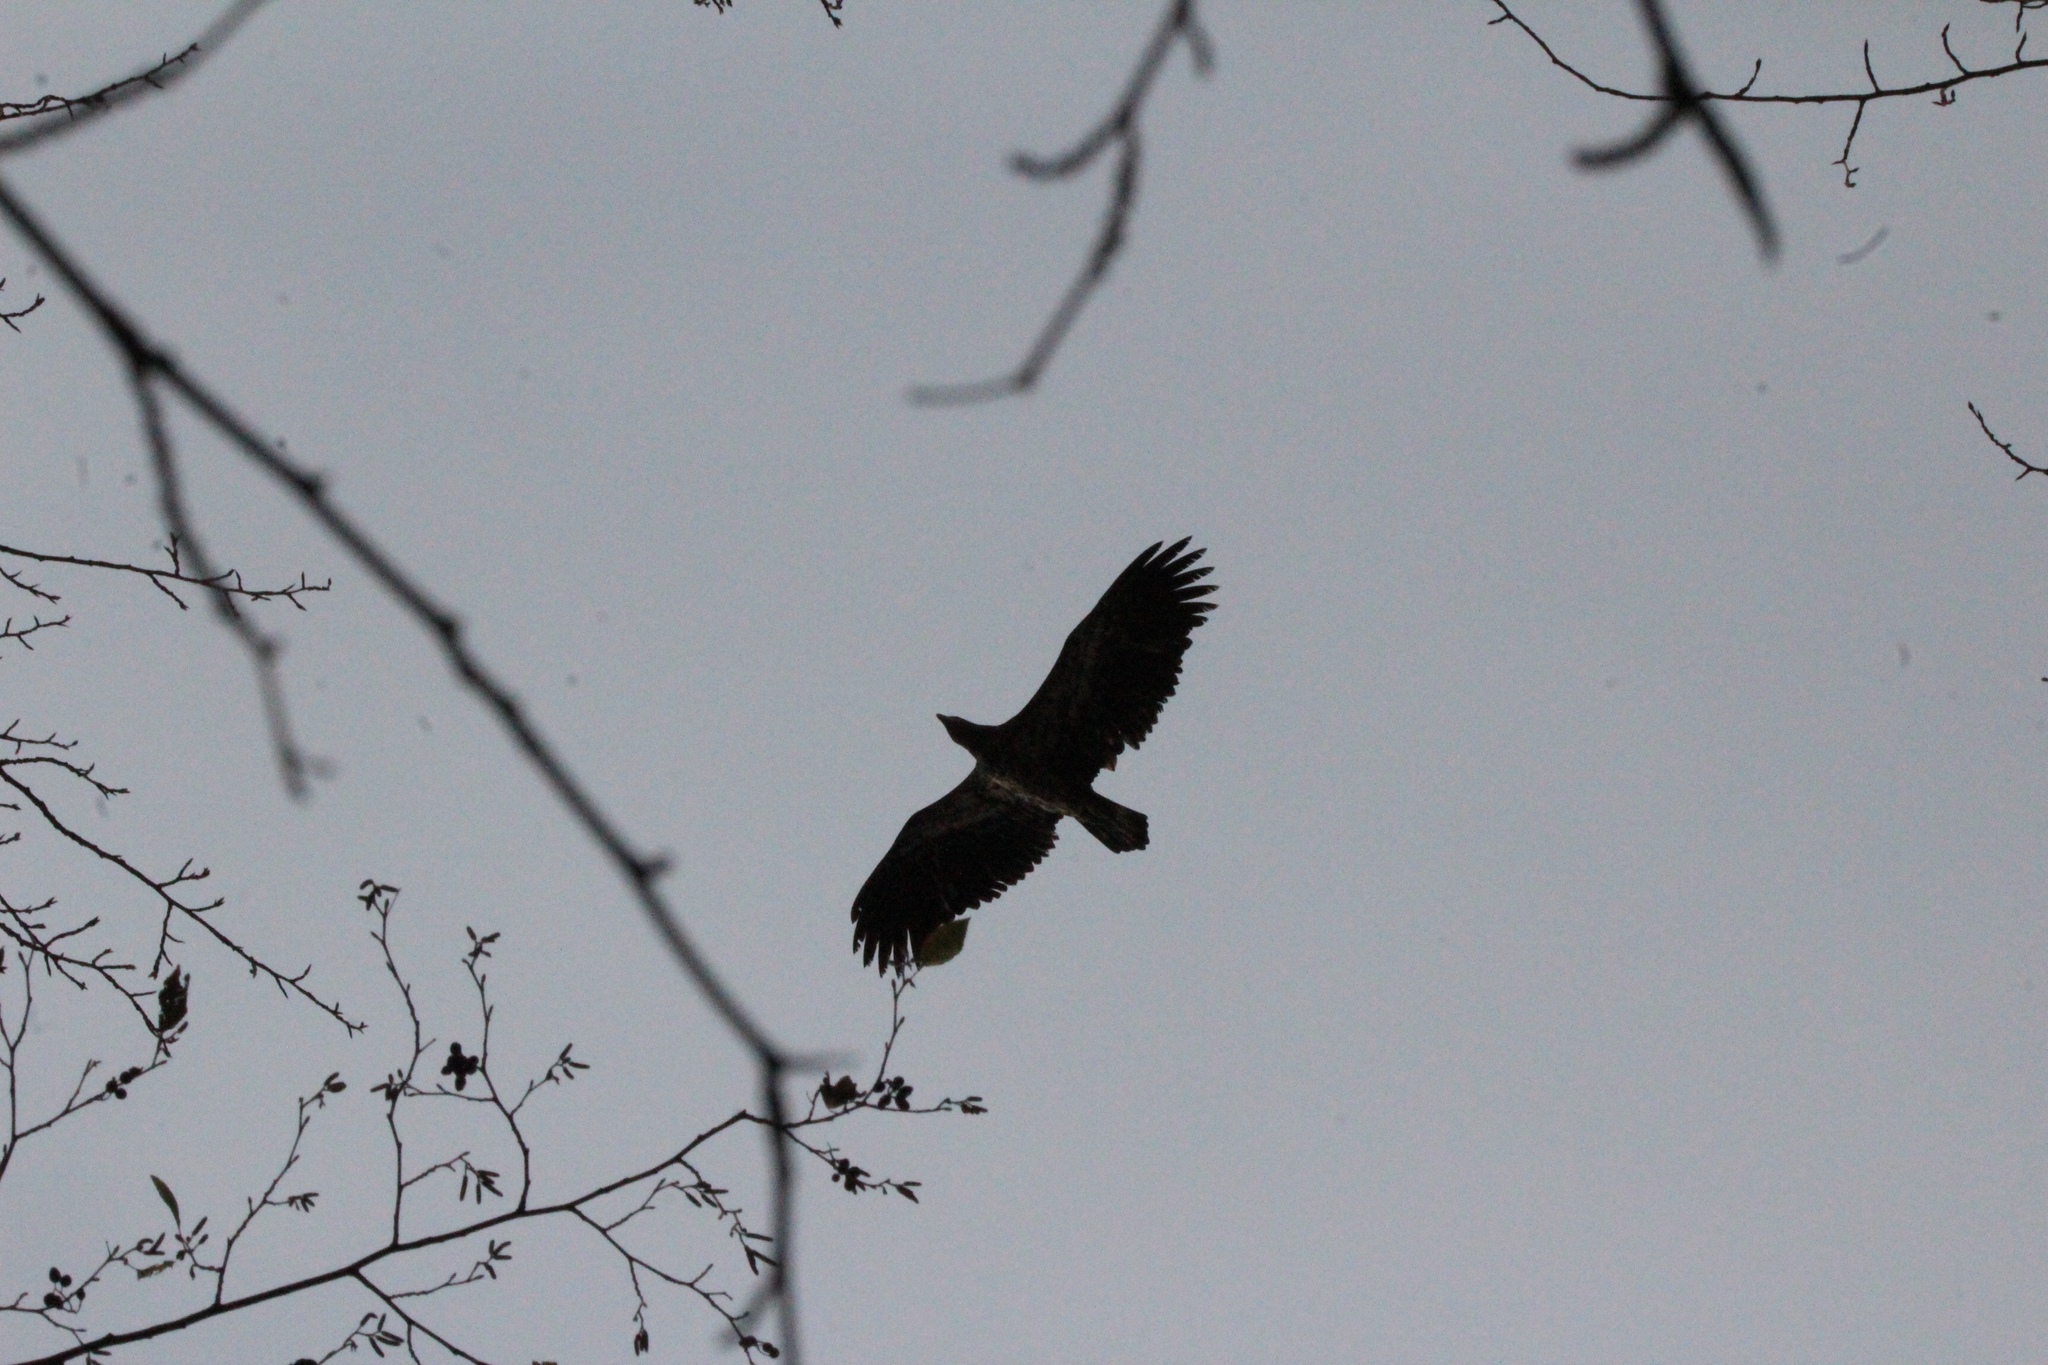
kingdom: Animalia
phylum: Chordata
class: Aves
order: Accipitriformes
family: Accipitridae
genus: Haliaeetus
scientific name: Haliaeetus leucocephalus
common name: Bald eagle
